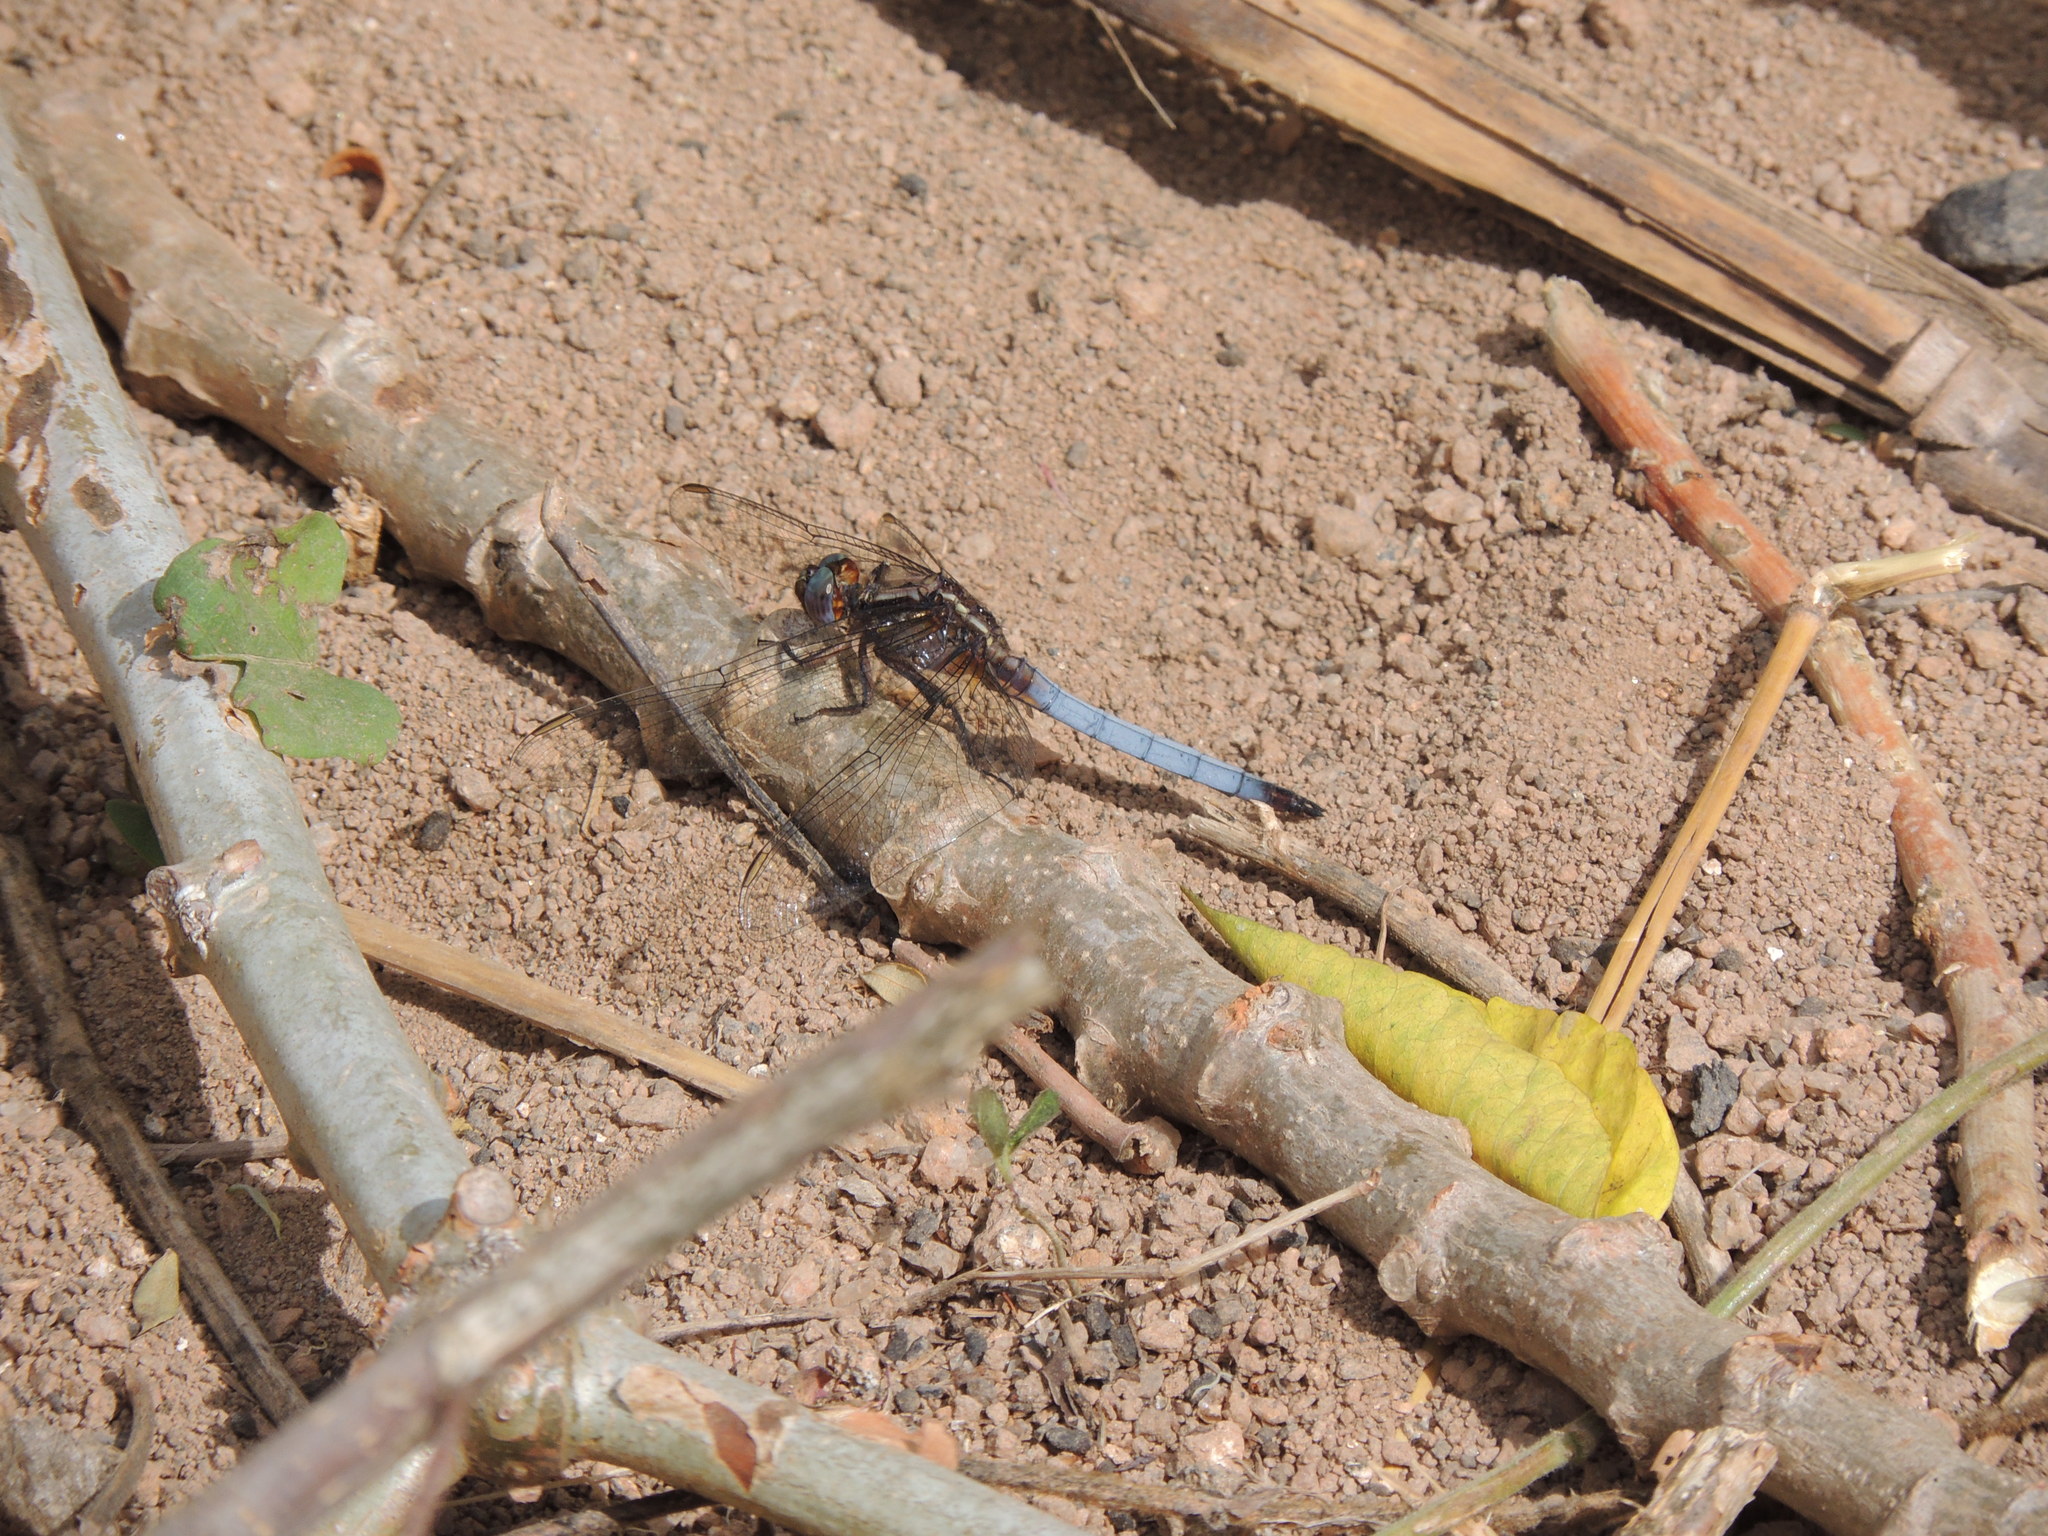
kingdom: Animalia
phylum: Arthropoda
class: Insecta
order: Odonata
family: Libellulidae
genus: Orthetrum
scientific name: Orthetrum azureum
